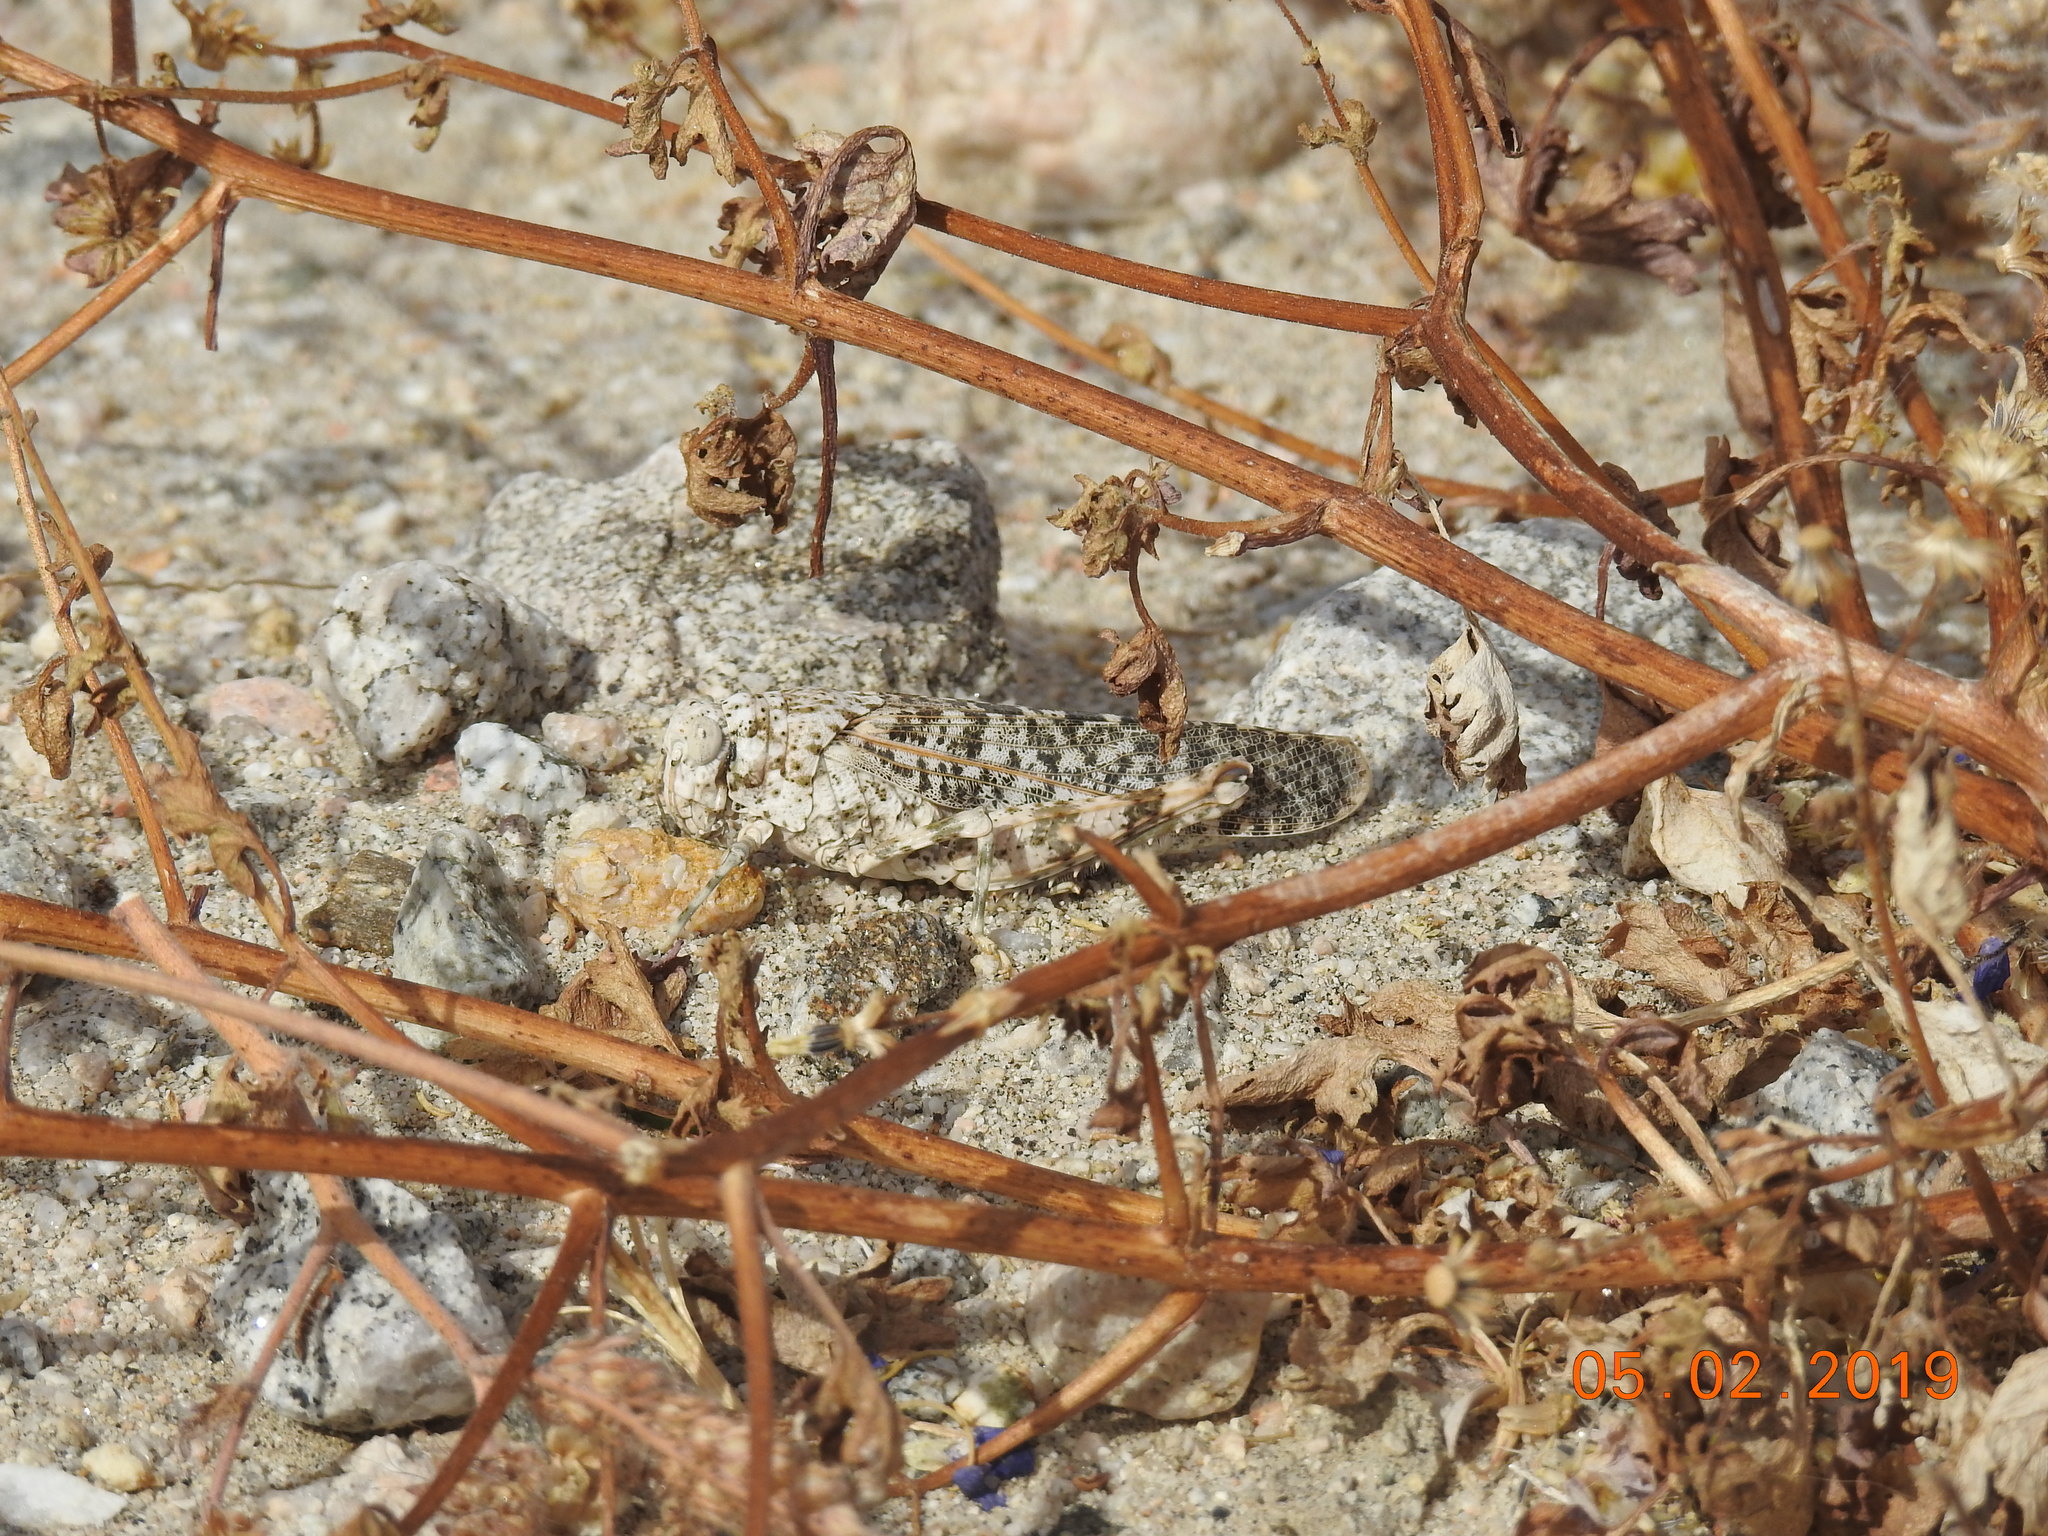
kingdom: Animalia
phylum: Arthropoda
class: Insecta
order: Orthoptera
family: Romaleidae
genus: Tytthotyle
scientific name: Tytthotyle maculata
